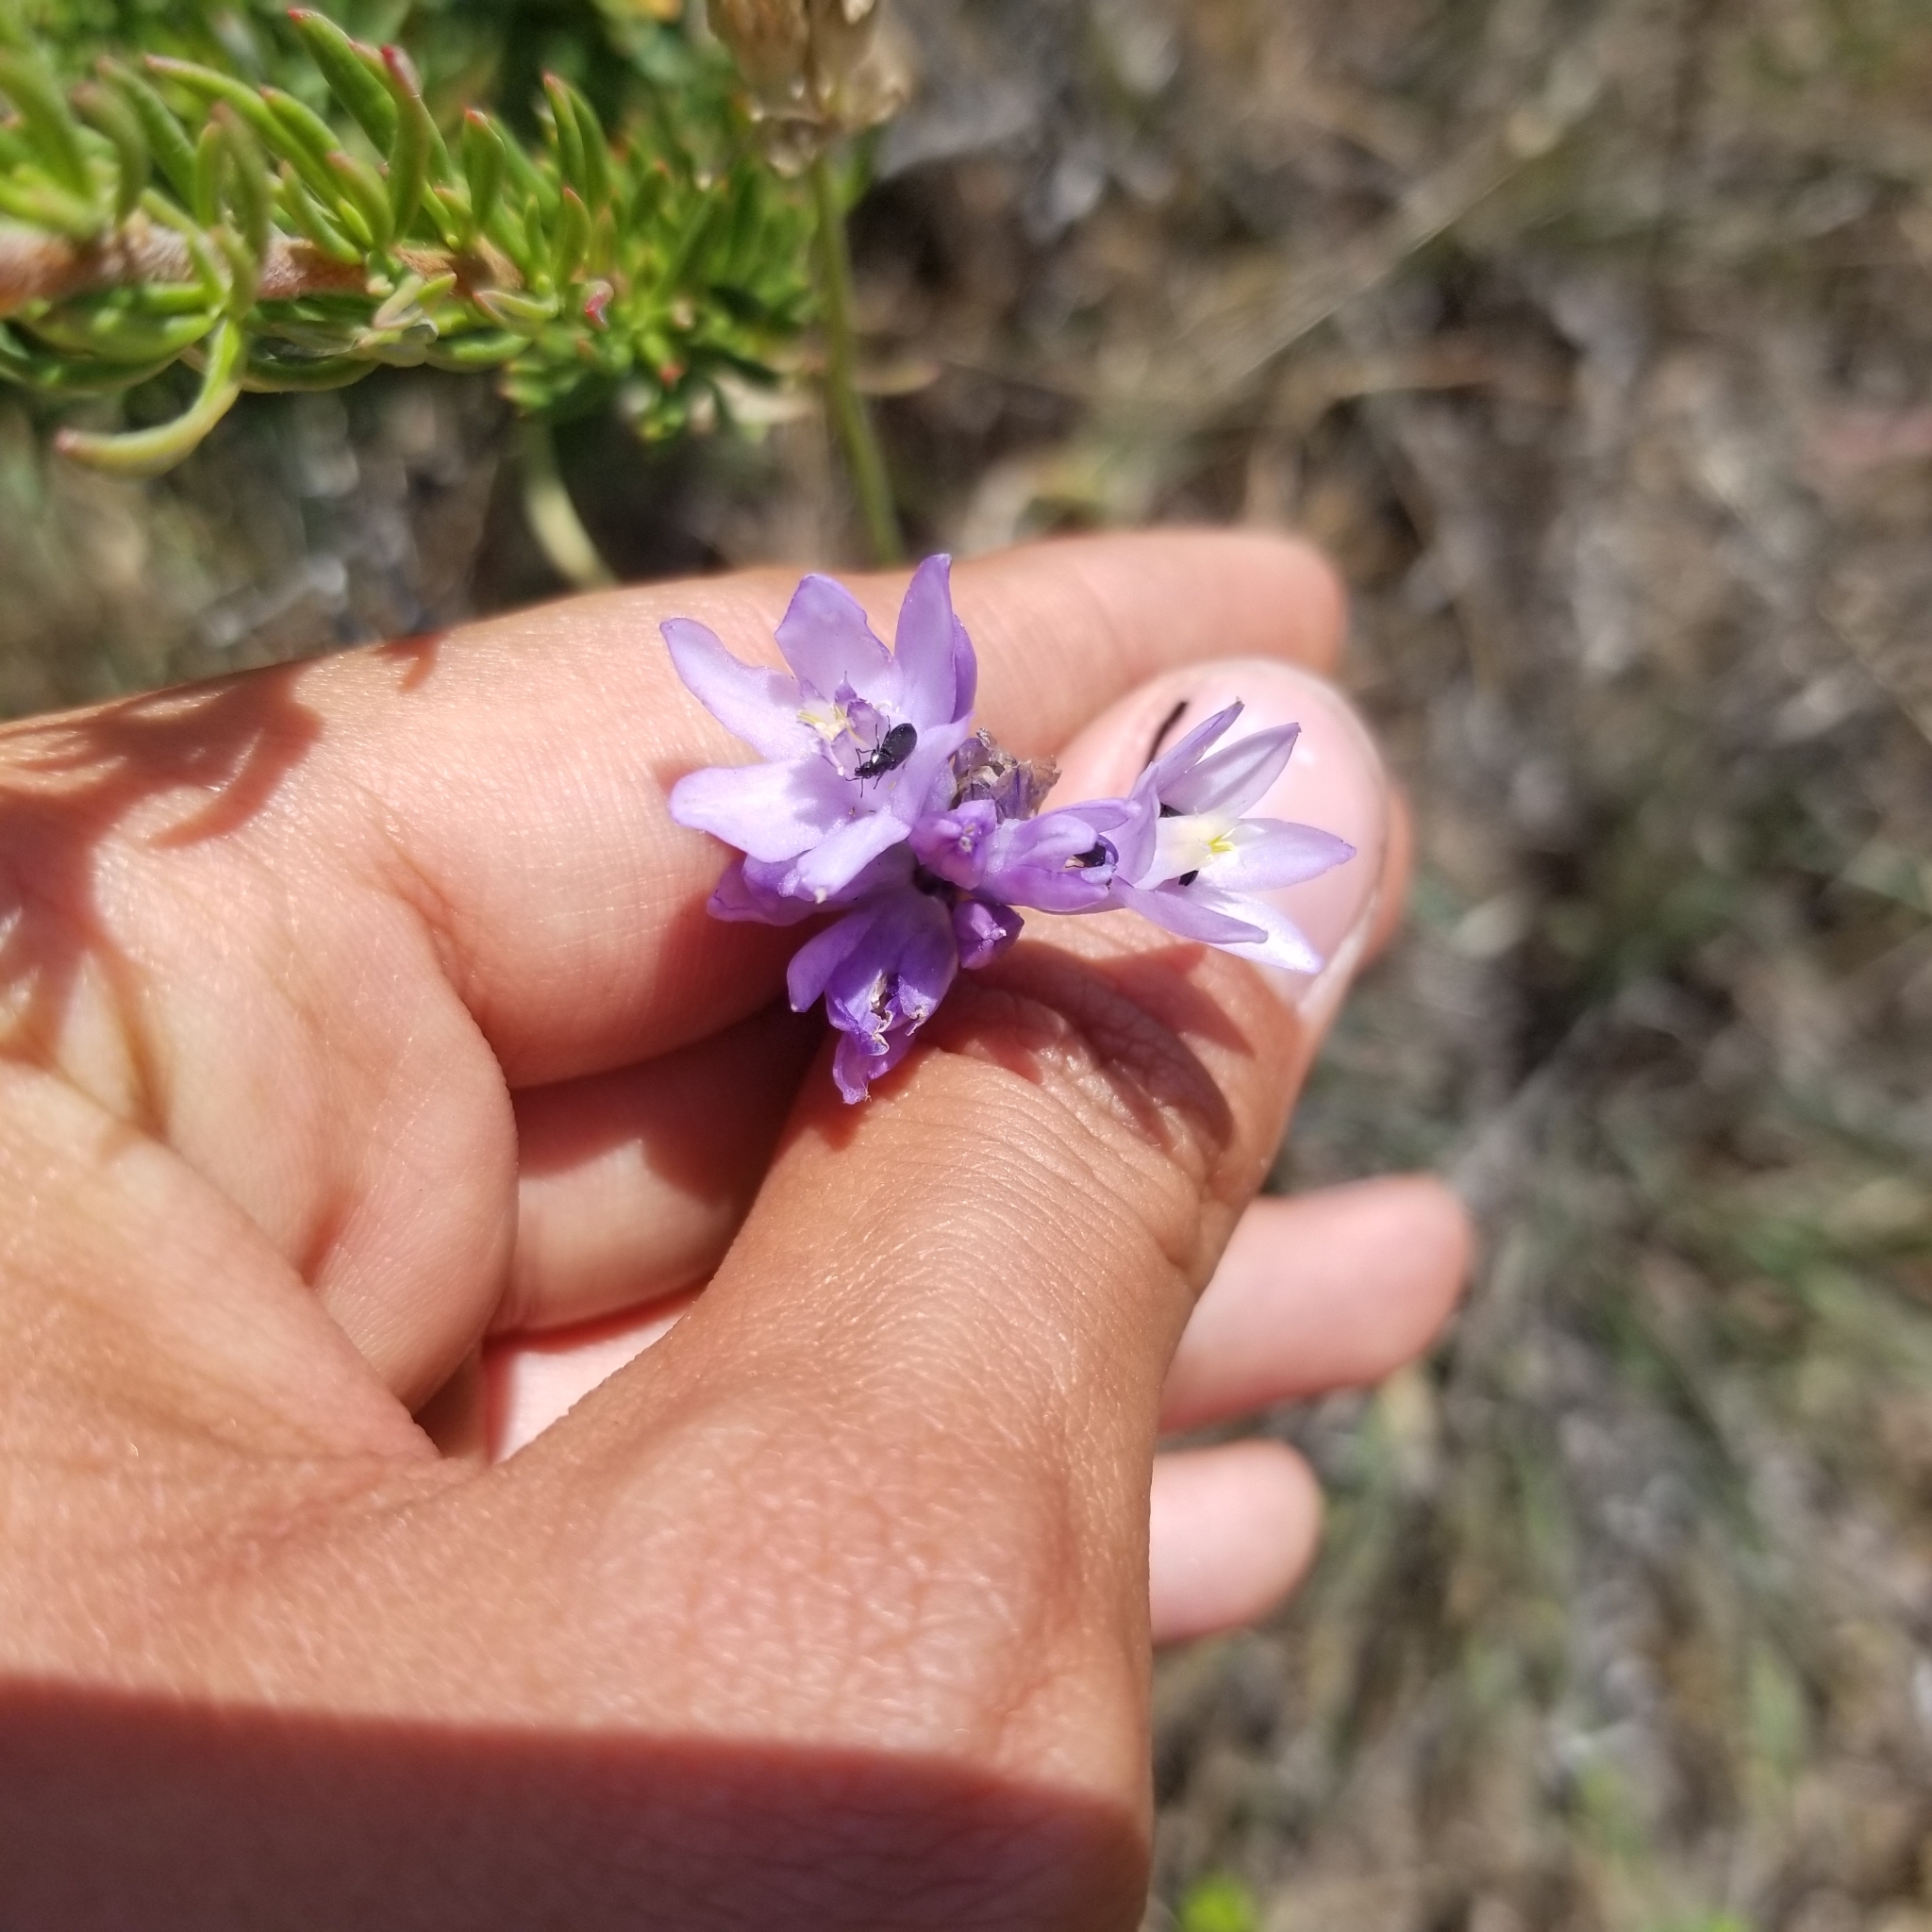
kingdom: Plantae
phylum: Tracheophyta
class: Liliopsida
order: Asparagales
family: Asparagaceae
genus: Dipterostemon
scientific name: Dipterostemon capitatus
